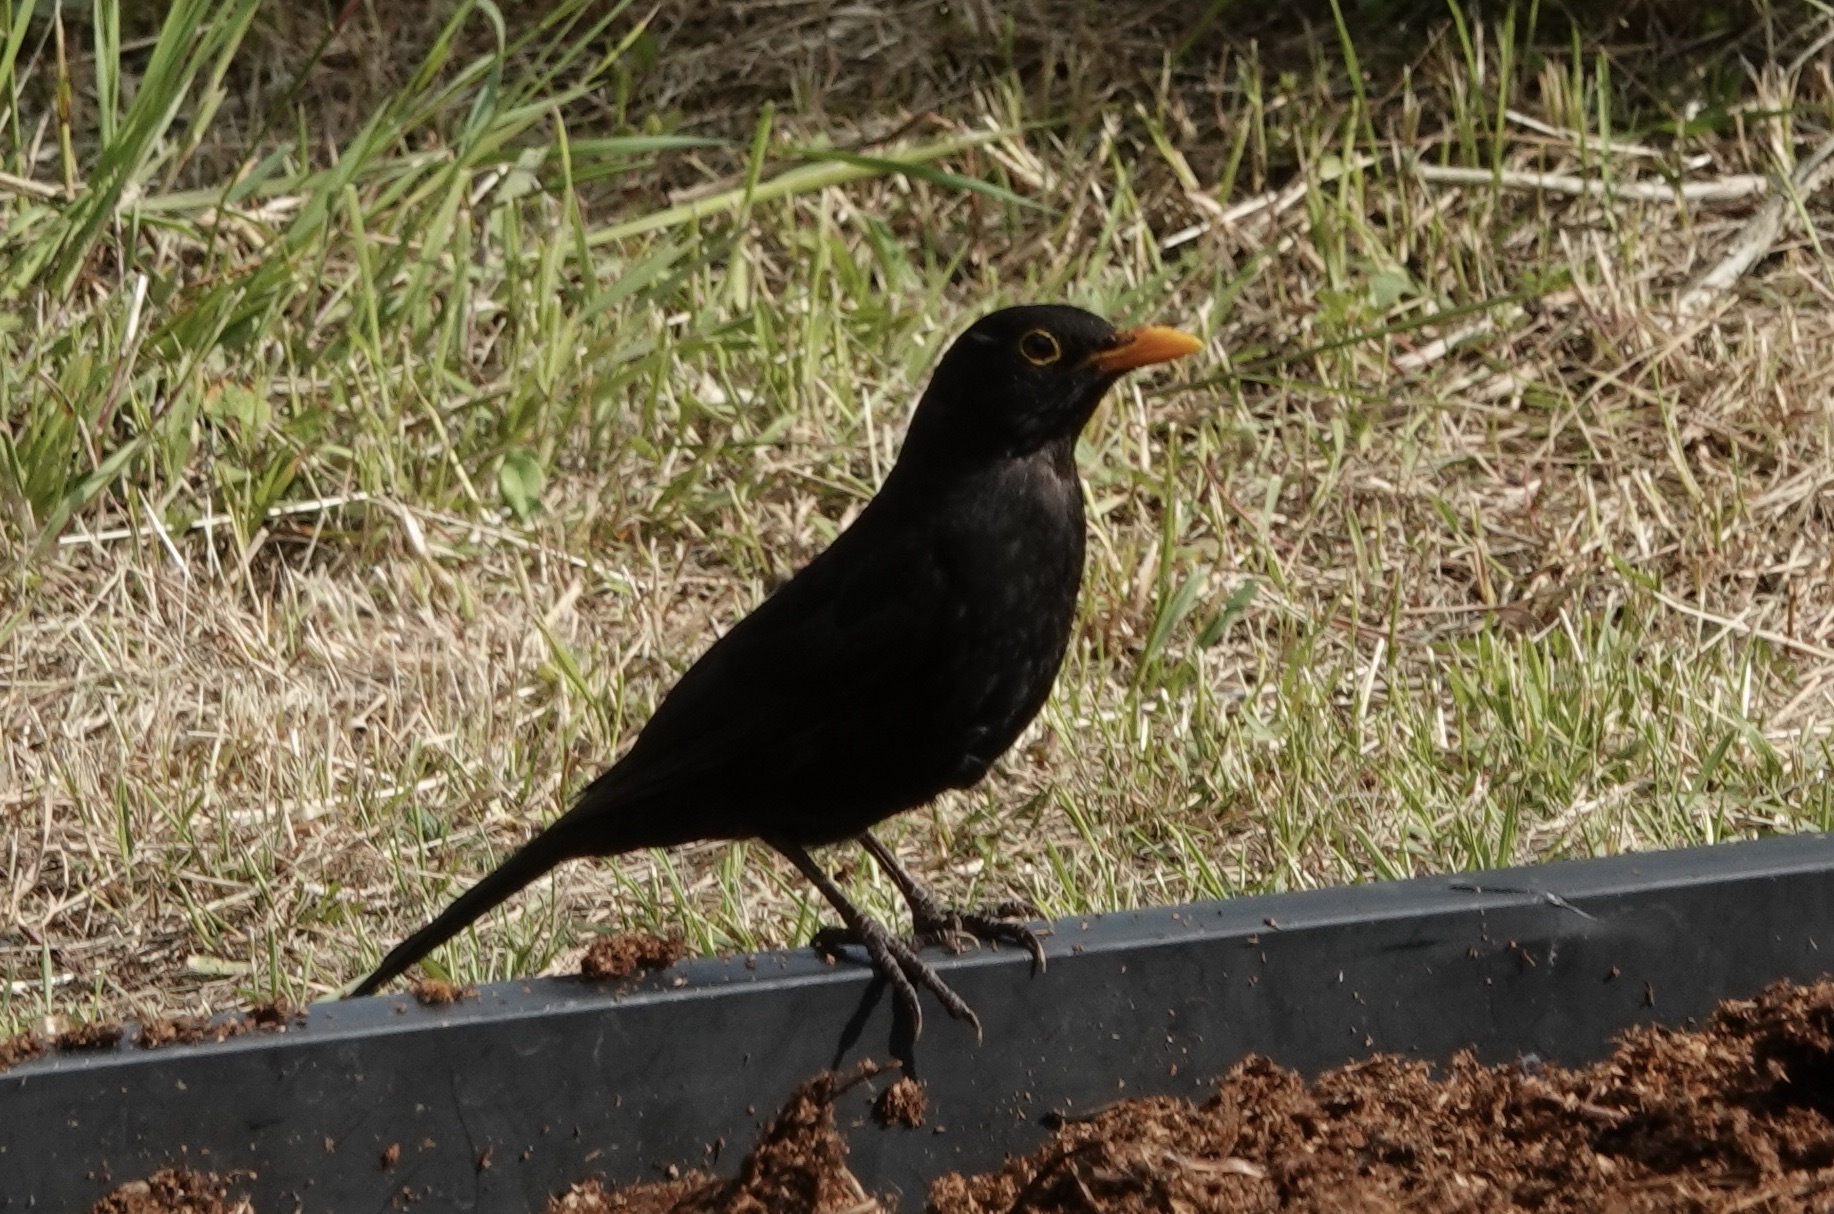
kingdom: Animalia
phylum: Chordata
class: Aves
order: Passeriformes
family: Turdidae
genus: Turdus
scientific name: Turdus merula
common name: Common blackbird
